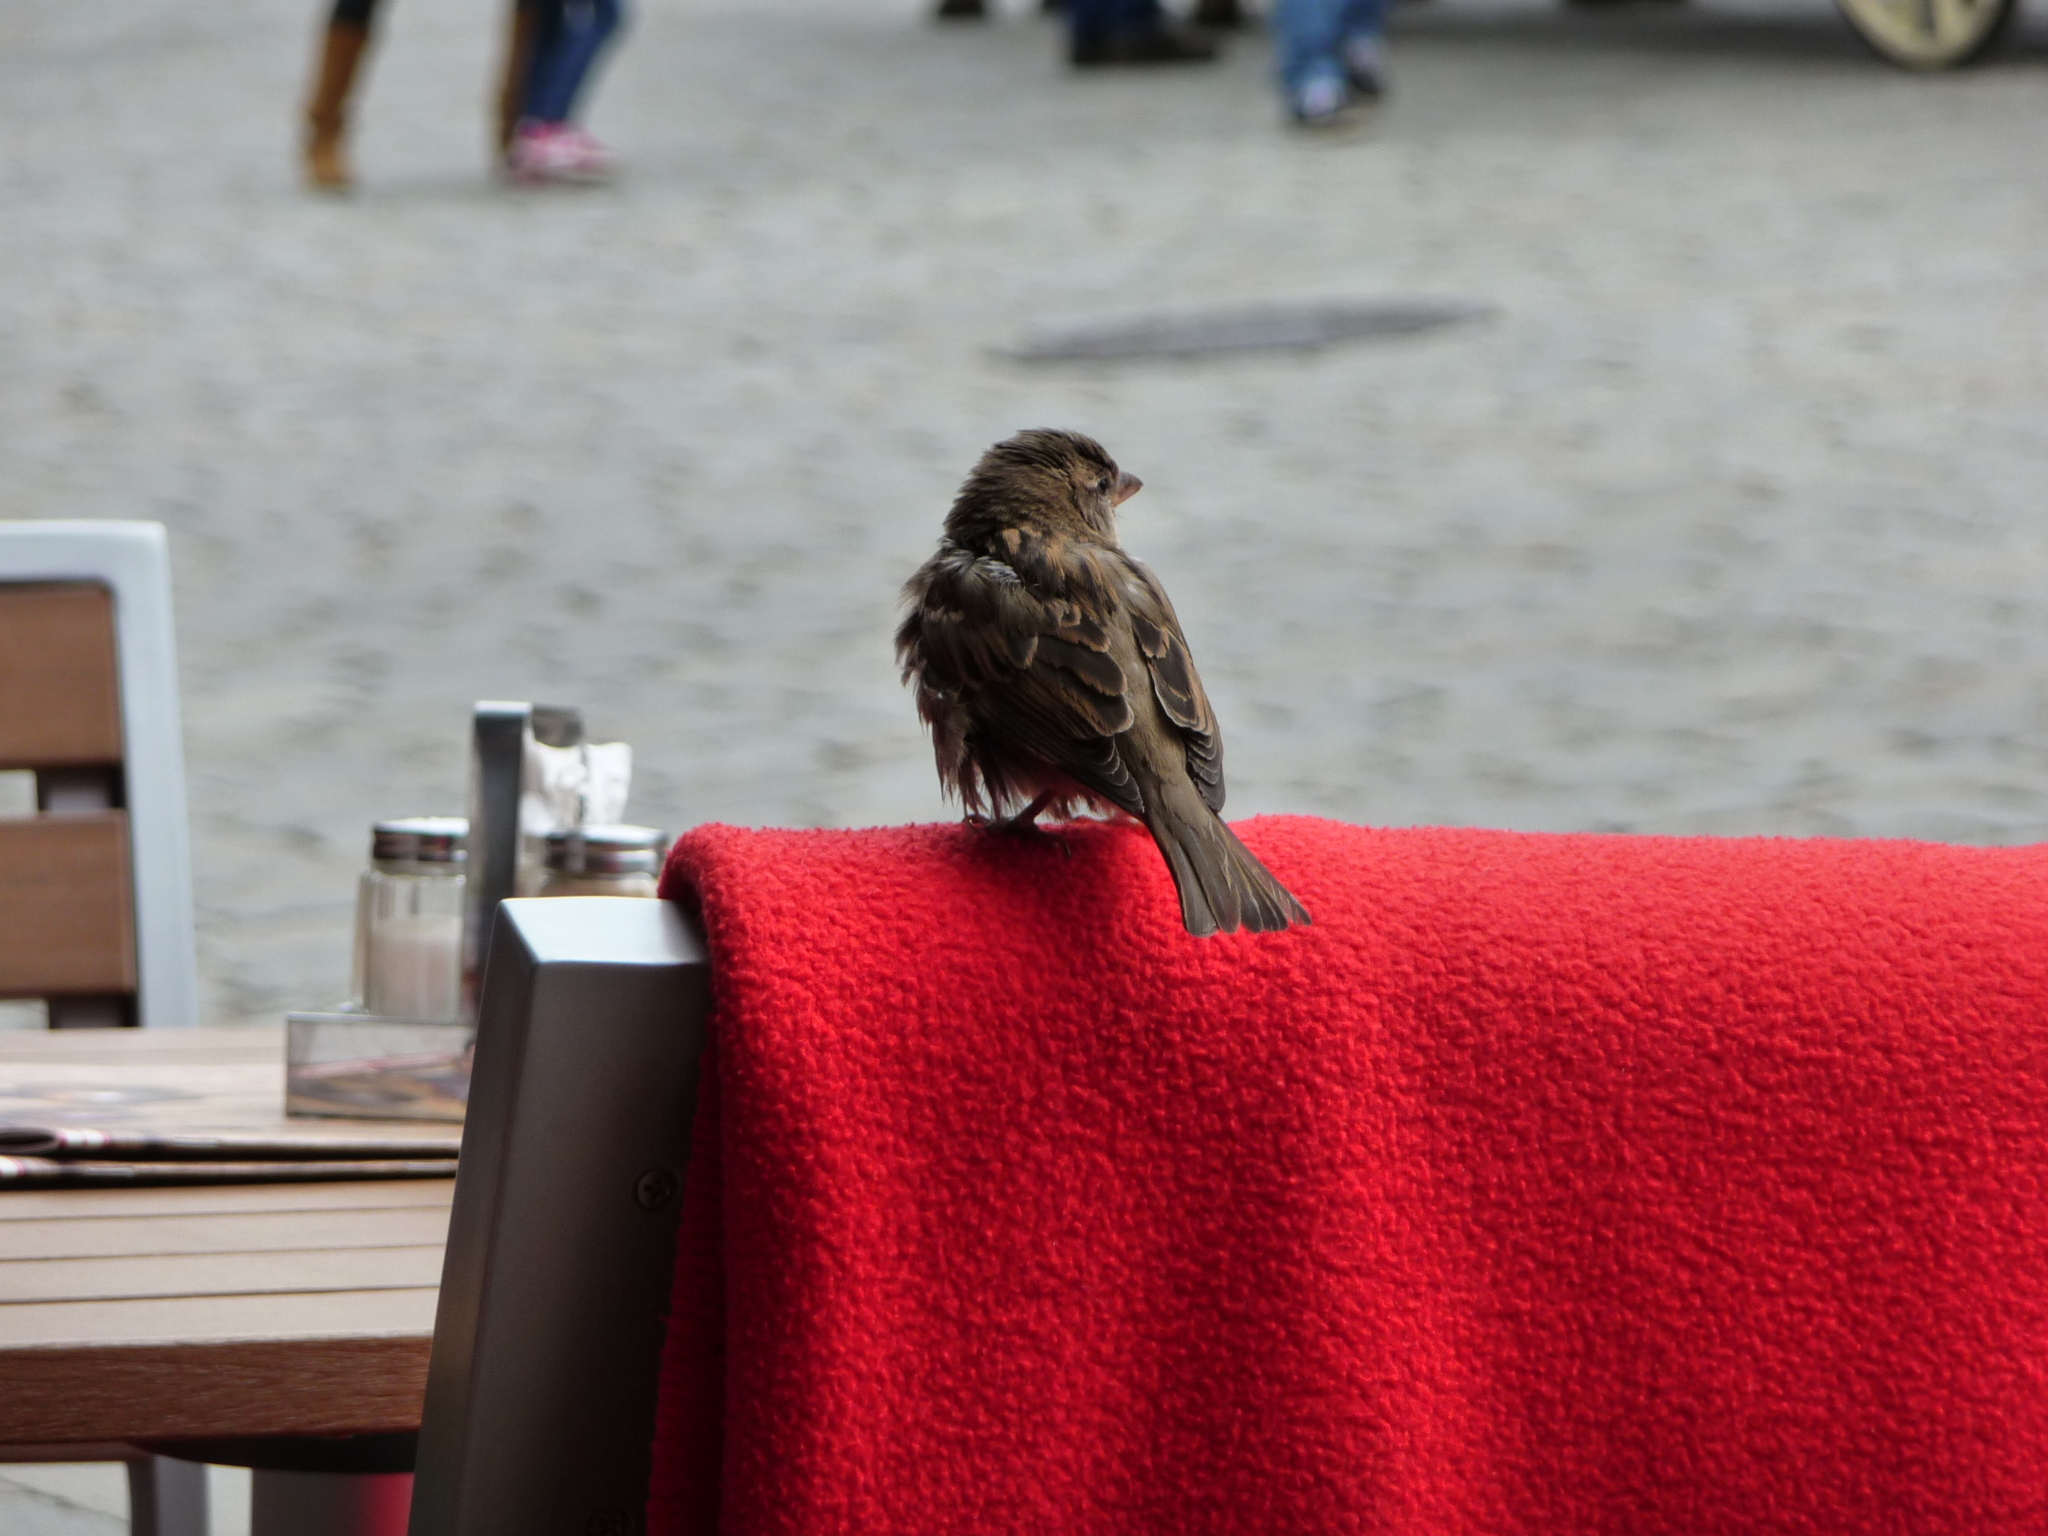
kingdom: Animalia
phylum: Chordata
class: Aves
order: Passeriformes
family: Passeridae
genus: Passer
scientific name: Passer domesticus
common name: House sparrow
